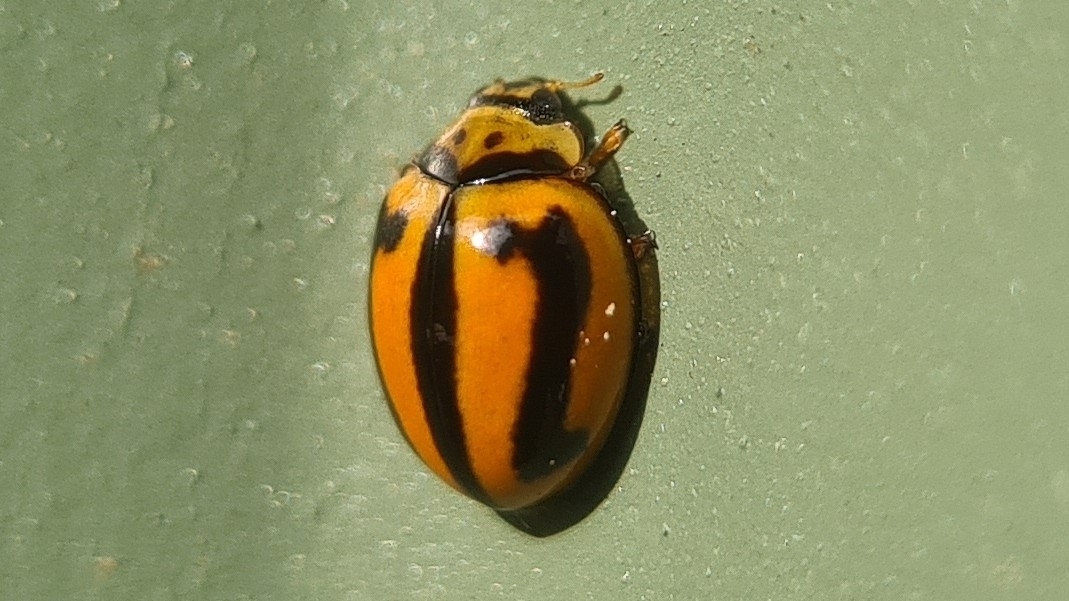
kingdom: Animalia
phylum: Arthropoda
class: Insecta
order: Coleoptera
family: Coccinellidae
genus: Micraspis
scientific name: Micraspis frenata
